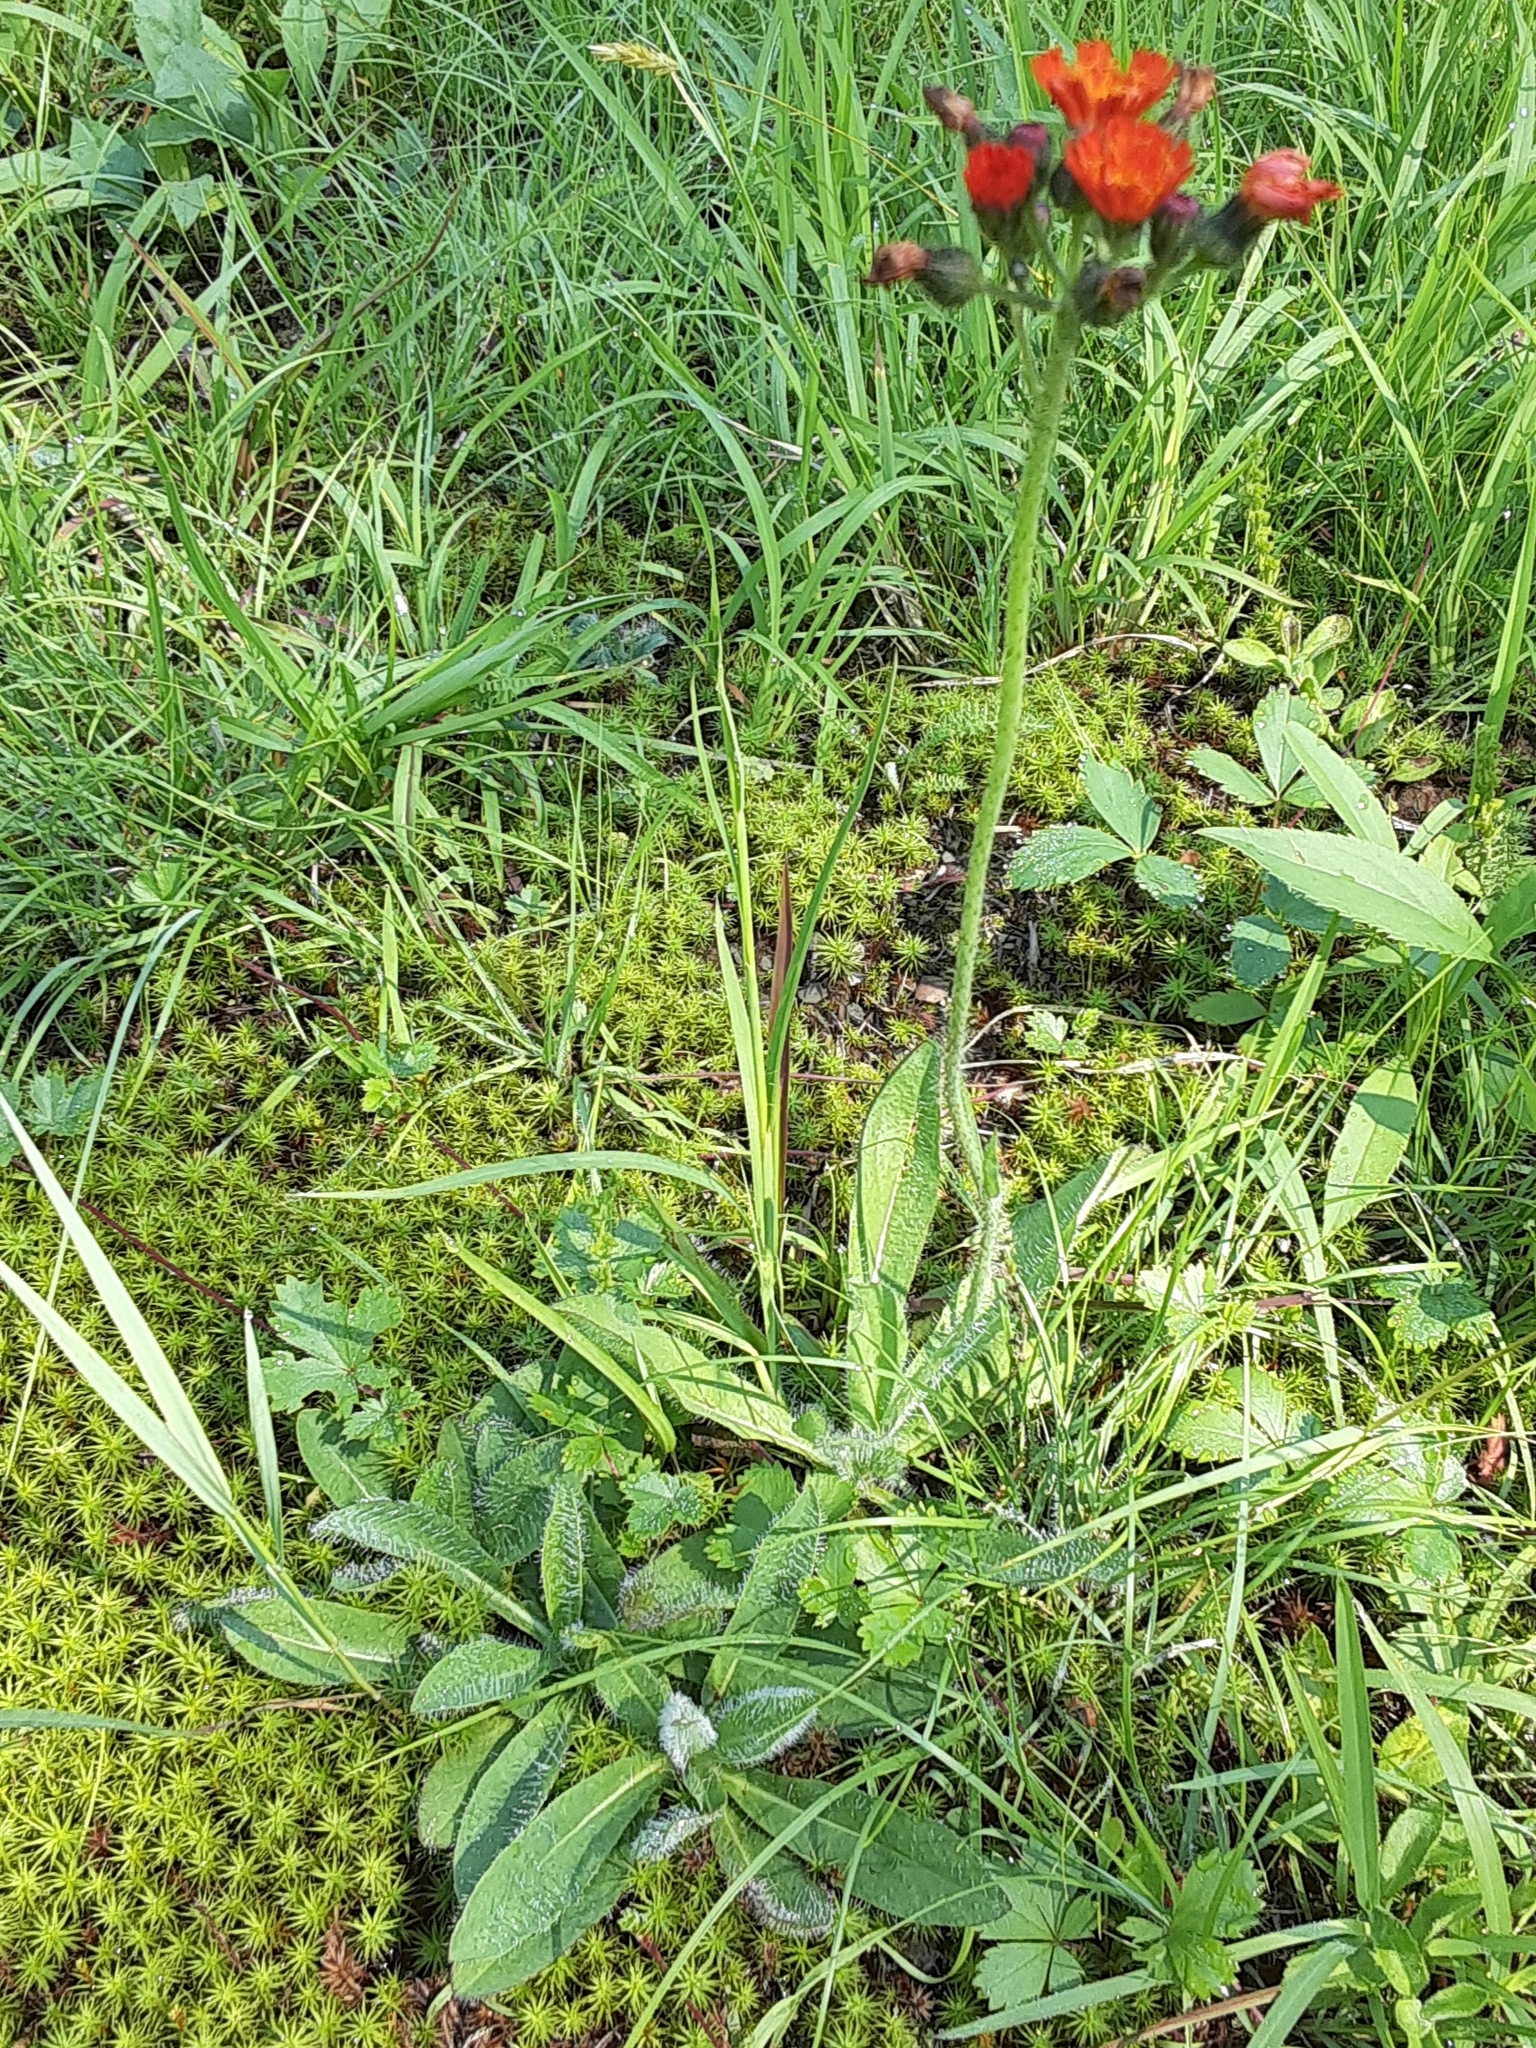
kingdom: Plantae
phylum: Tracheophyta
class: Magnoliopsida
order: Asterales
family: Asteraceae
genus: Pilosella
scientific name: Pilosella aurantiaca
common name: Fox-and-cubs
